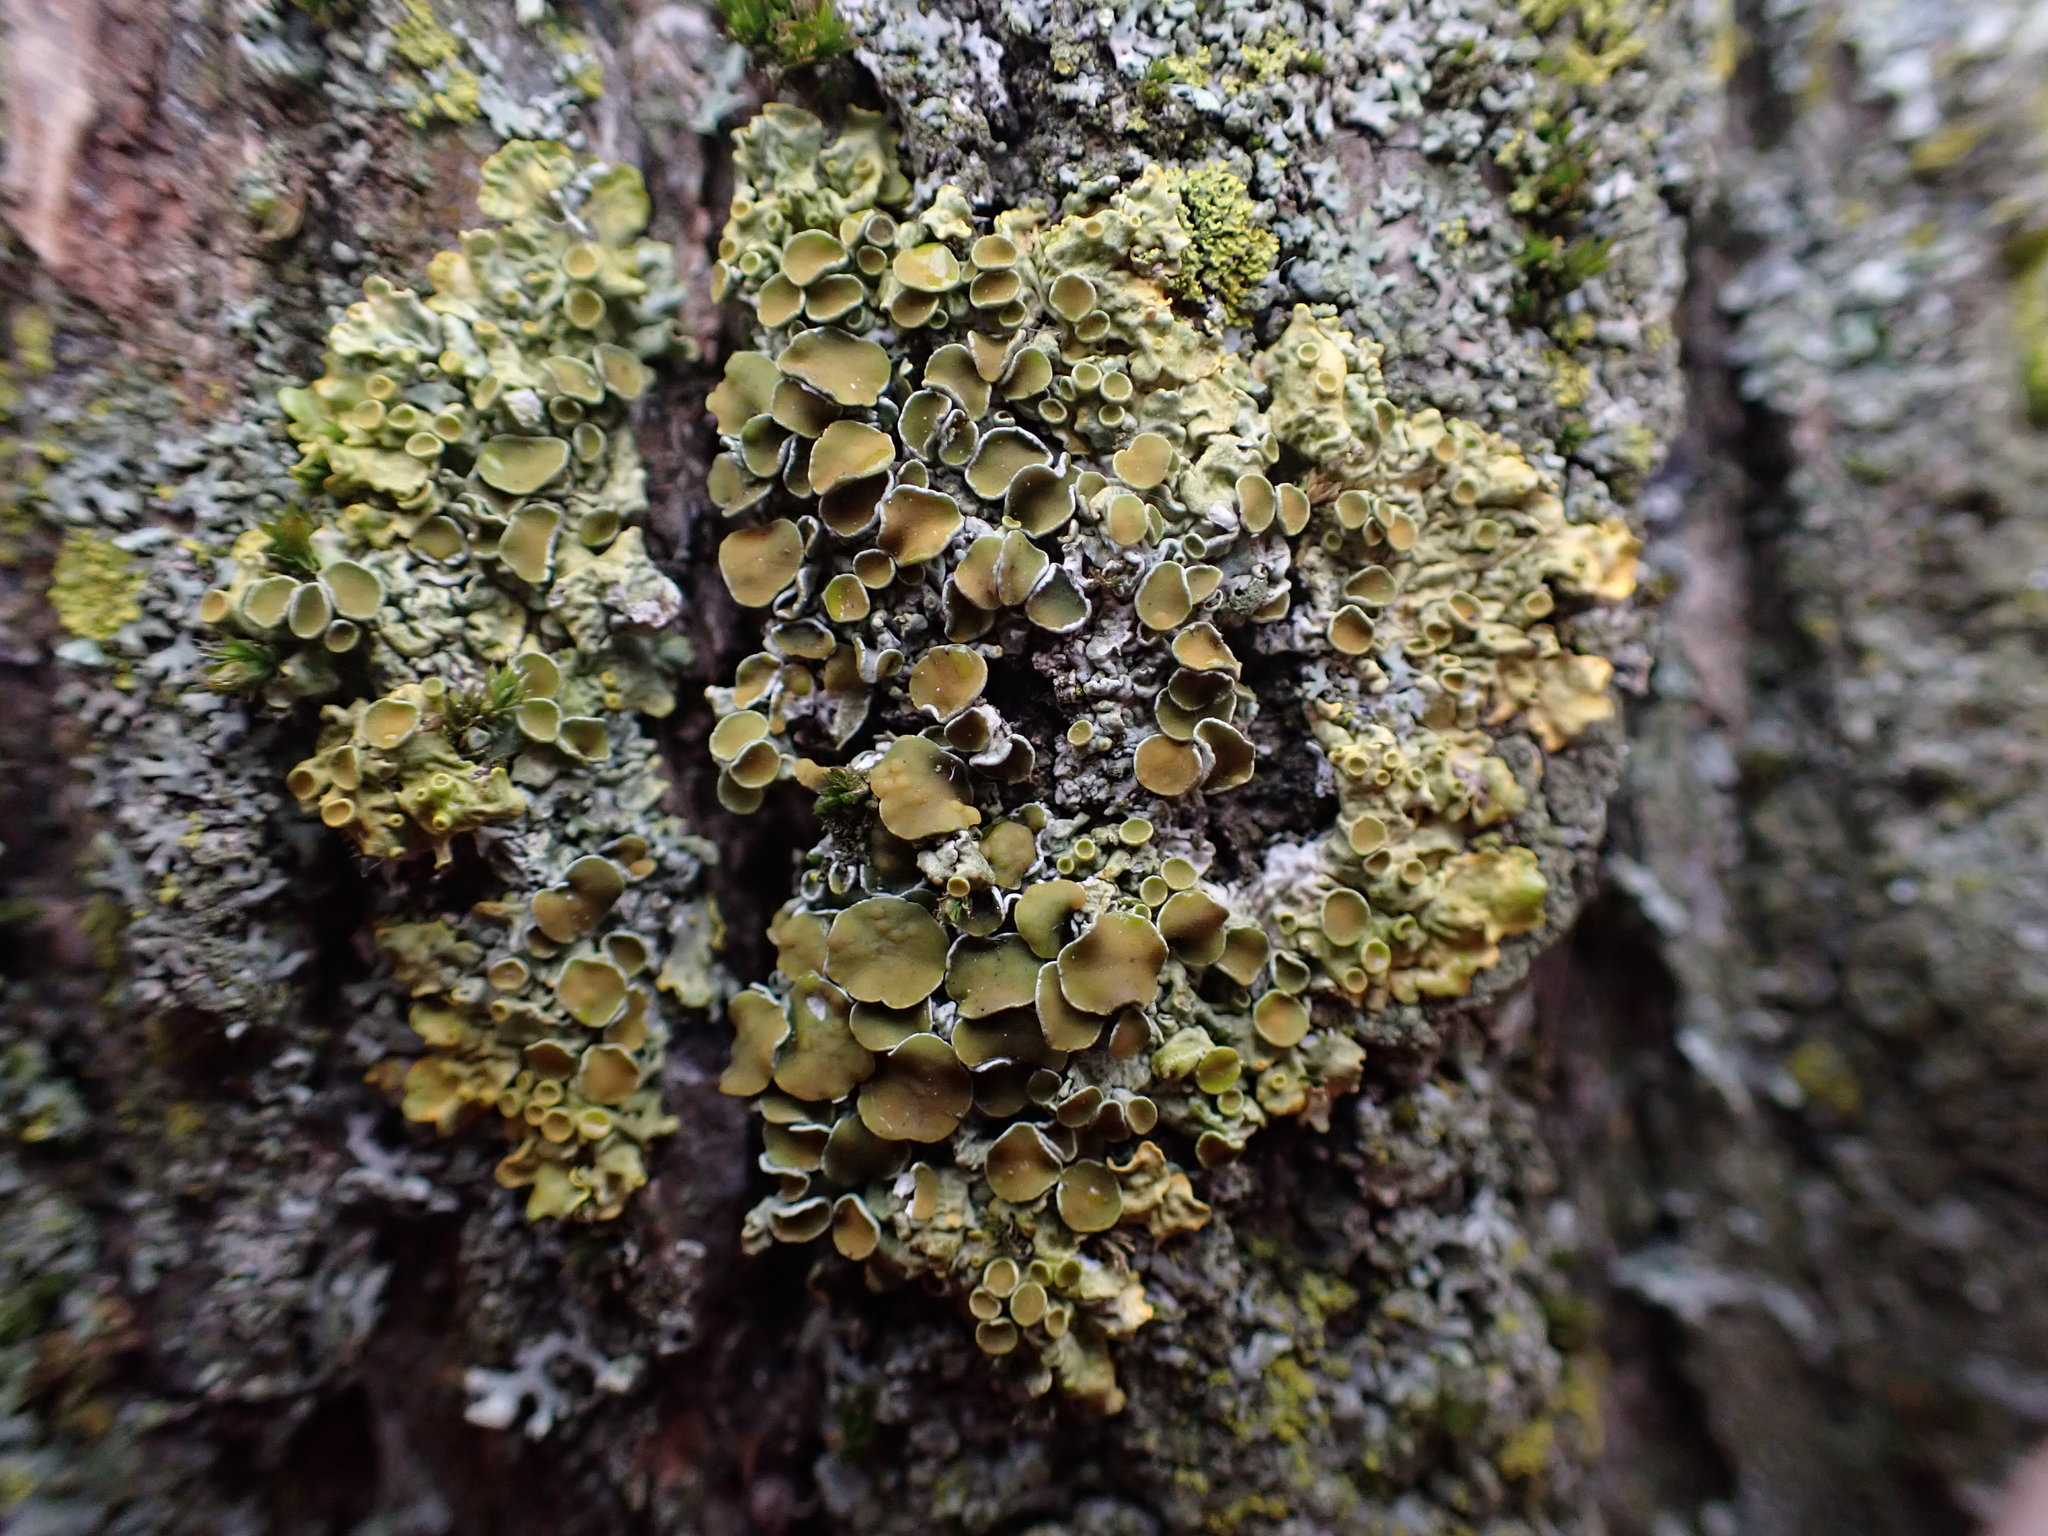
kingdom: Fungi
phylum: Ascomycota
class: Lecanoromycetes
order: Teloschistales
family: Teloschistaceae
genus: Xanthoria
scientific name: Xanthoria parietina
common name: Common orange lichen
